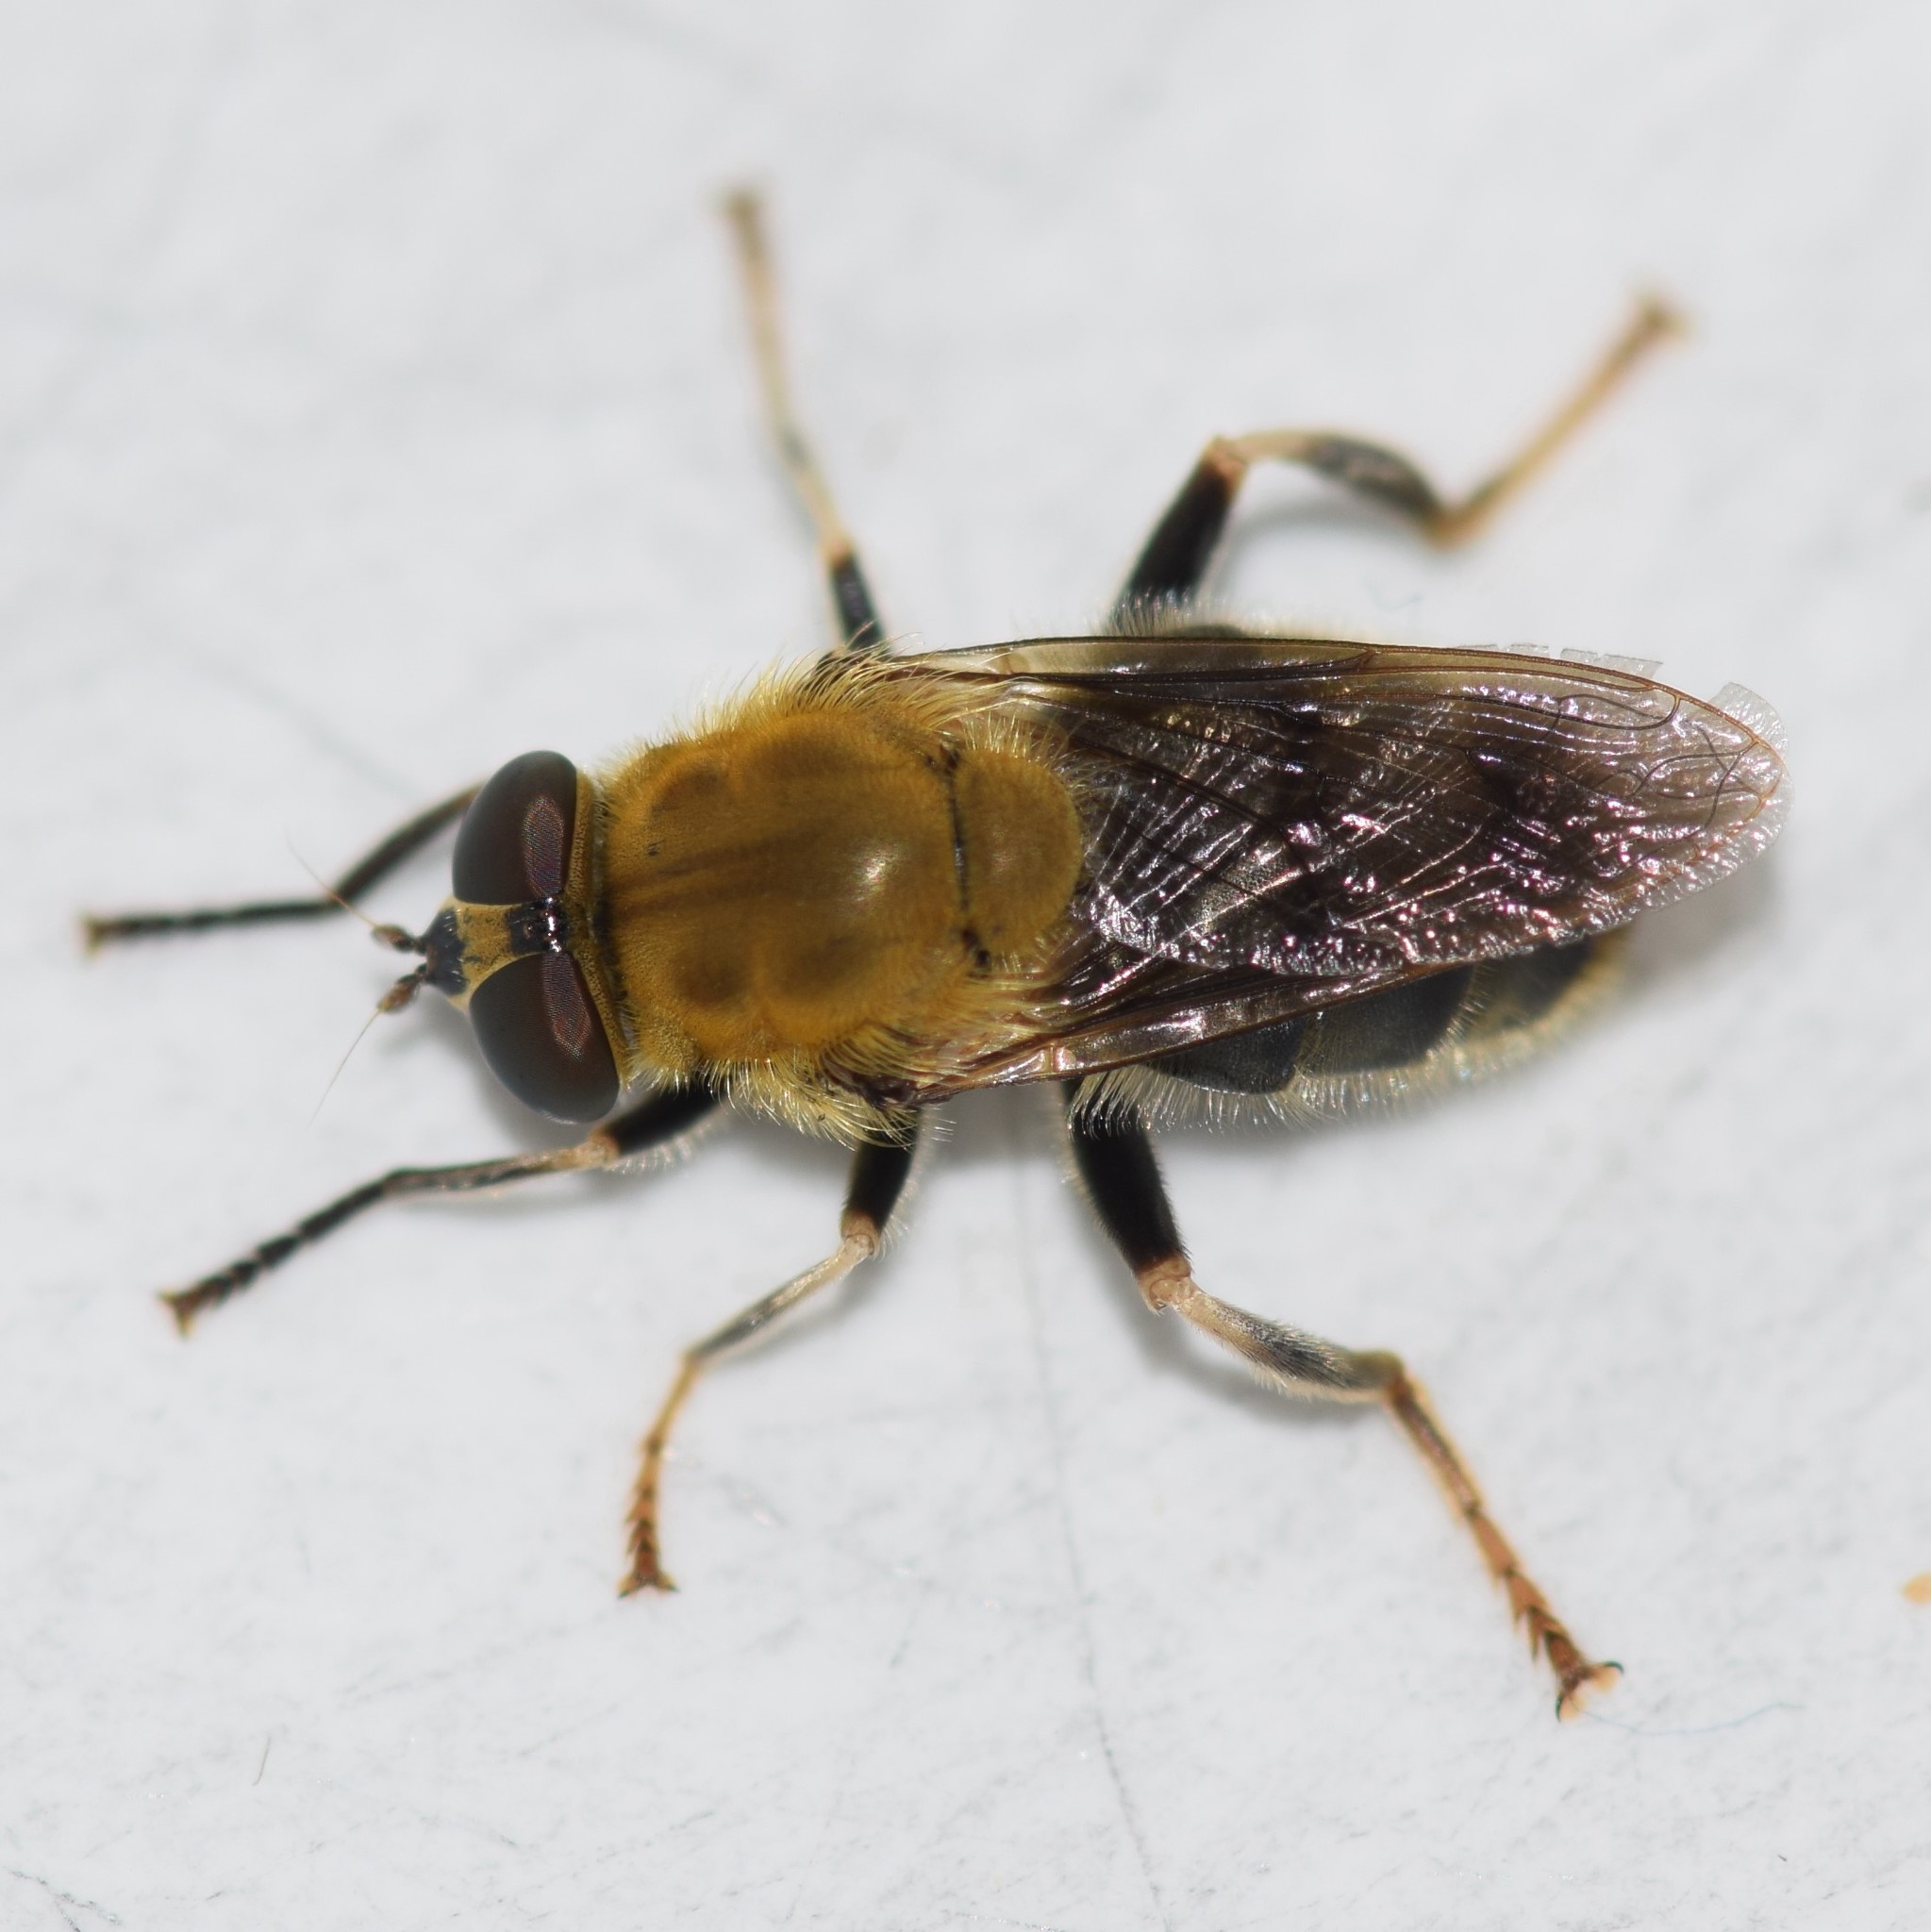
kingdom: Animalia
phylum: Arthropoda
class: Insecta
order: Diptera
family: Syrphidae
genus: Pterallastes
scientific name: Pterallastes thoracicus
